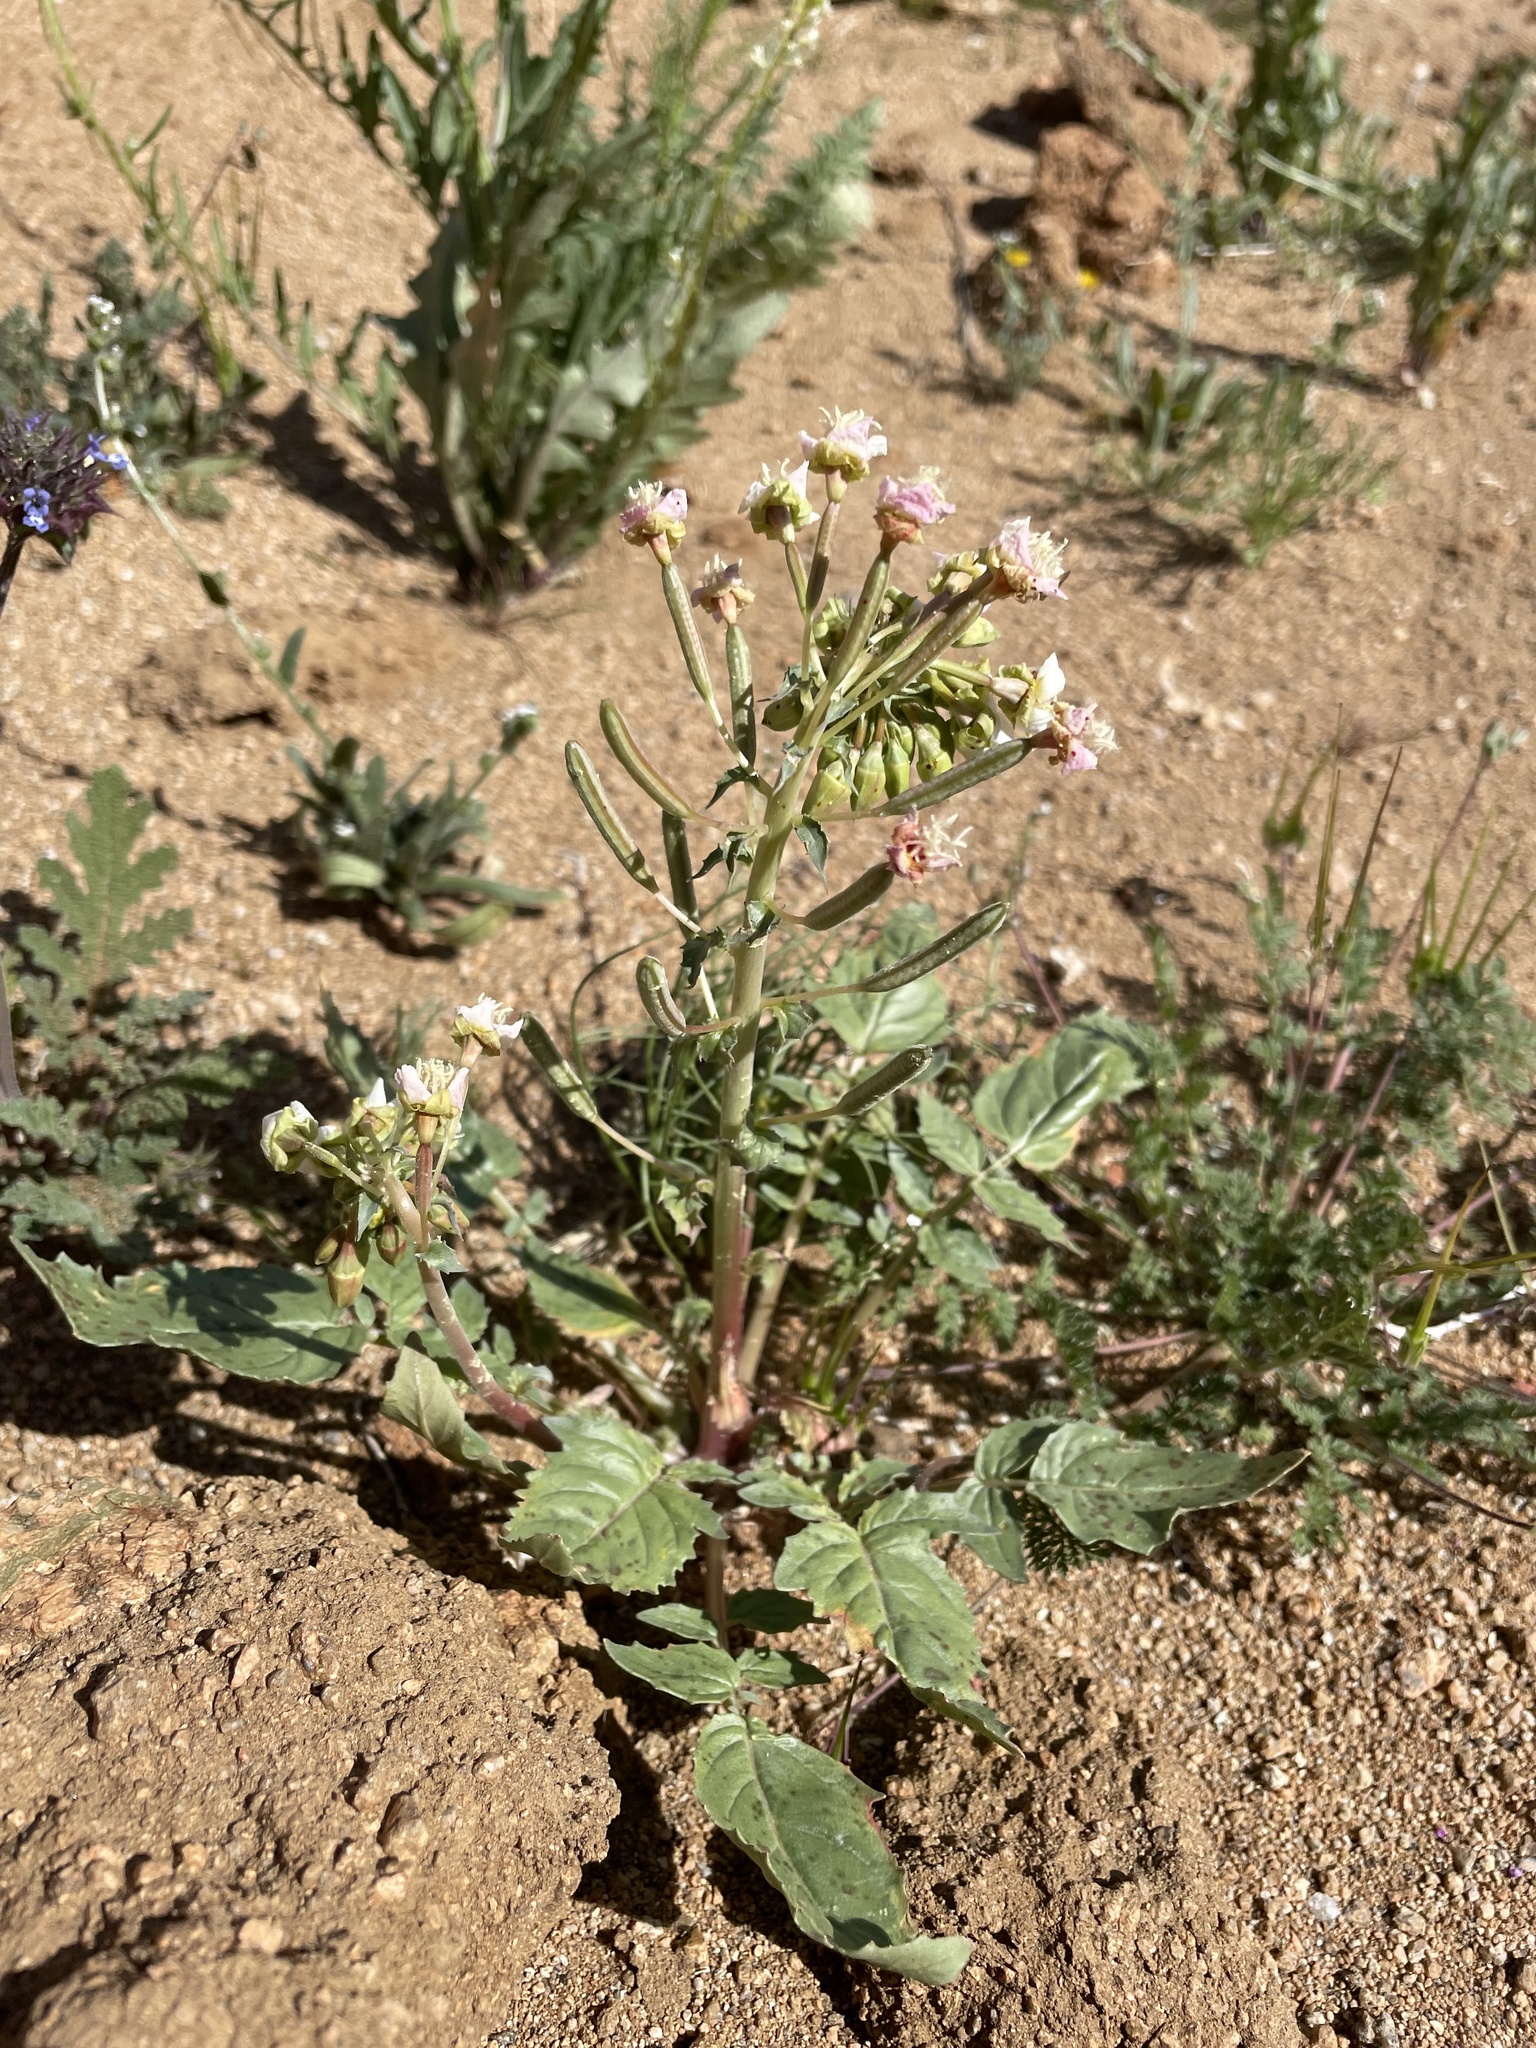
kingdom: Plantae
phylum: Tracheophyta
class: Magnoliopsida
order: Myrtales
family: Onagraceae
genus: Chylismia
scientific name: Chylismia claviformis
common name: Browneyes
